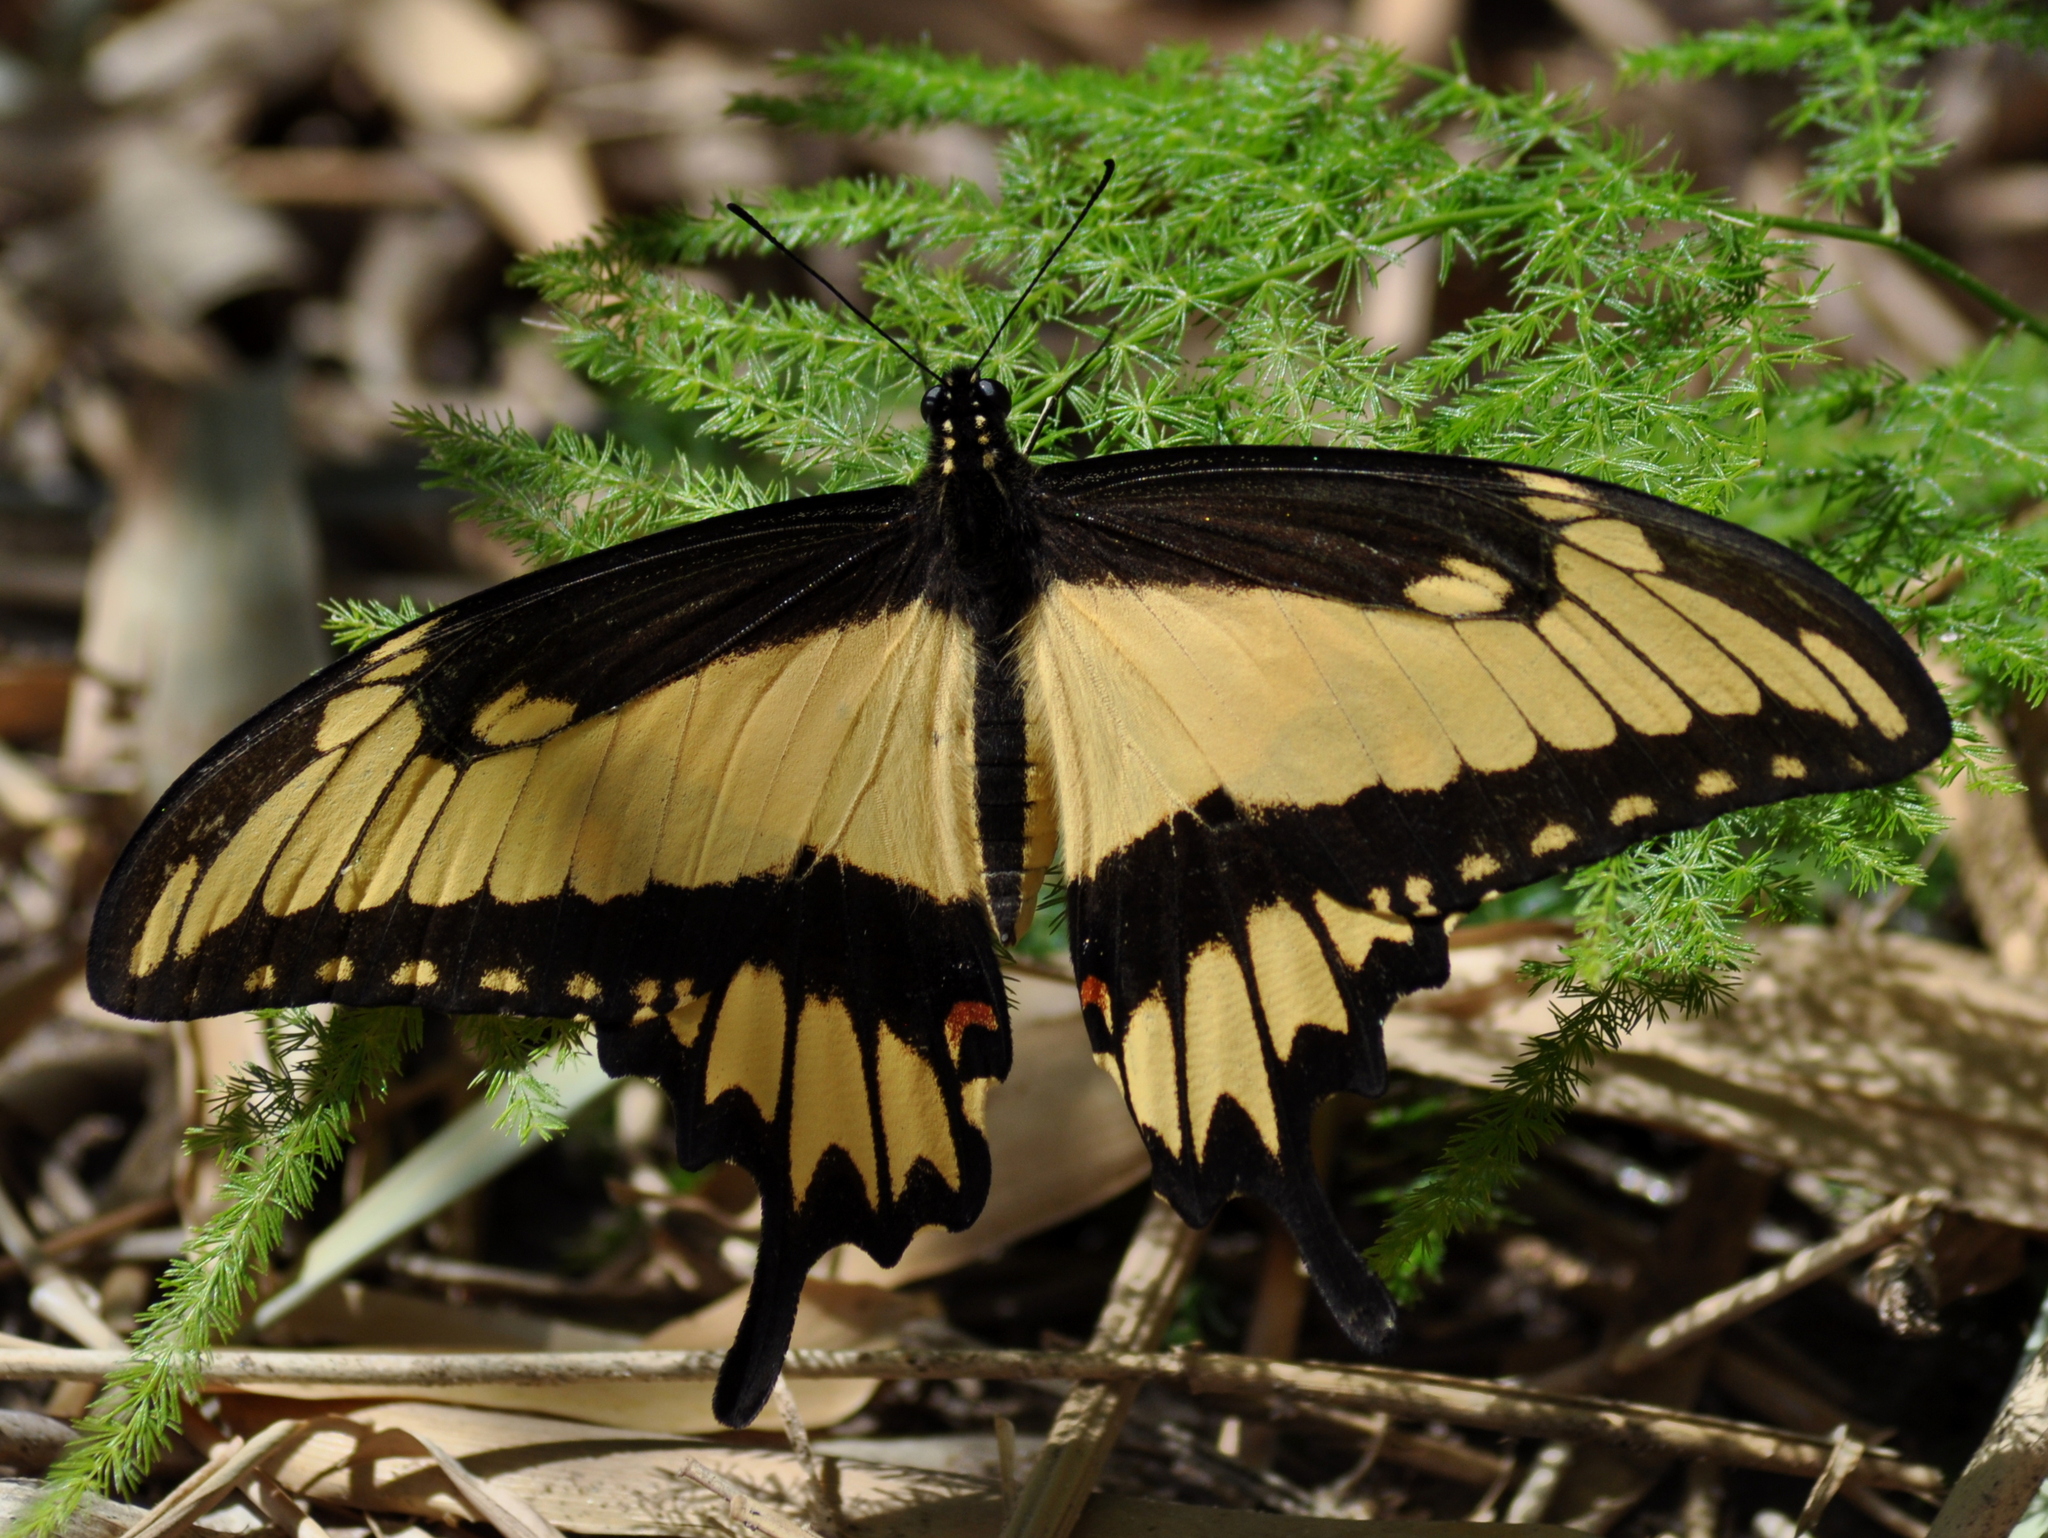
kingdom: Animalia
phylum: Arthropoda
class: Insecta
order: Lepidoptera
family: Papilionidae
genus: Papilio
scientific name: Papilio astyalus
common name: Astyalus swallowtail
